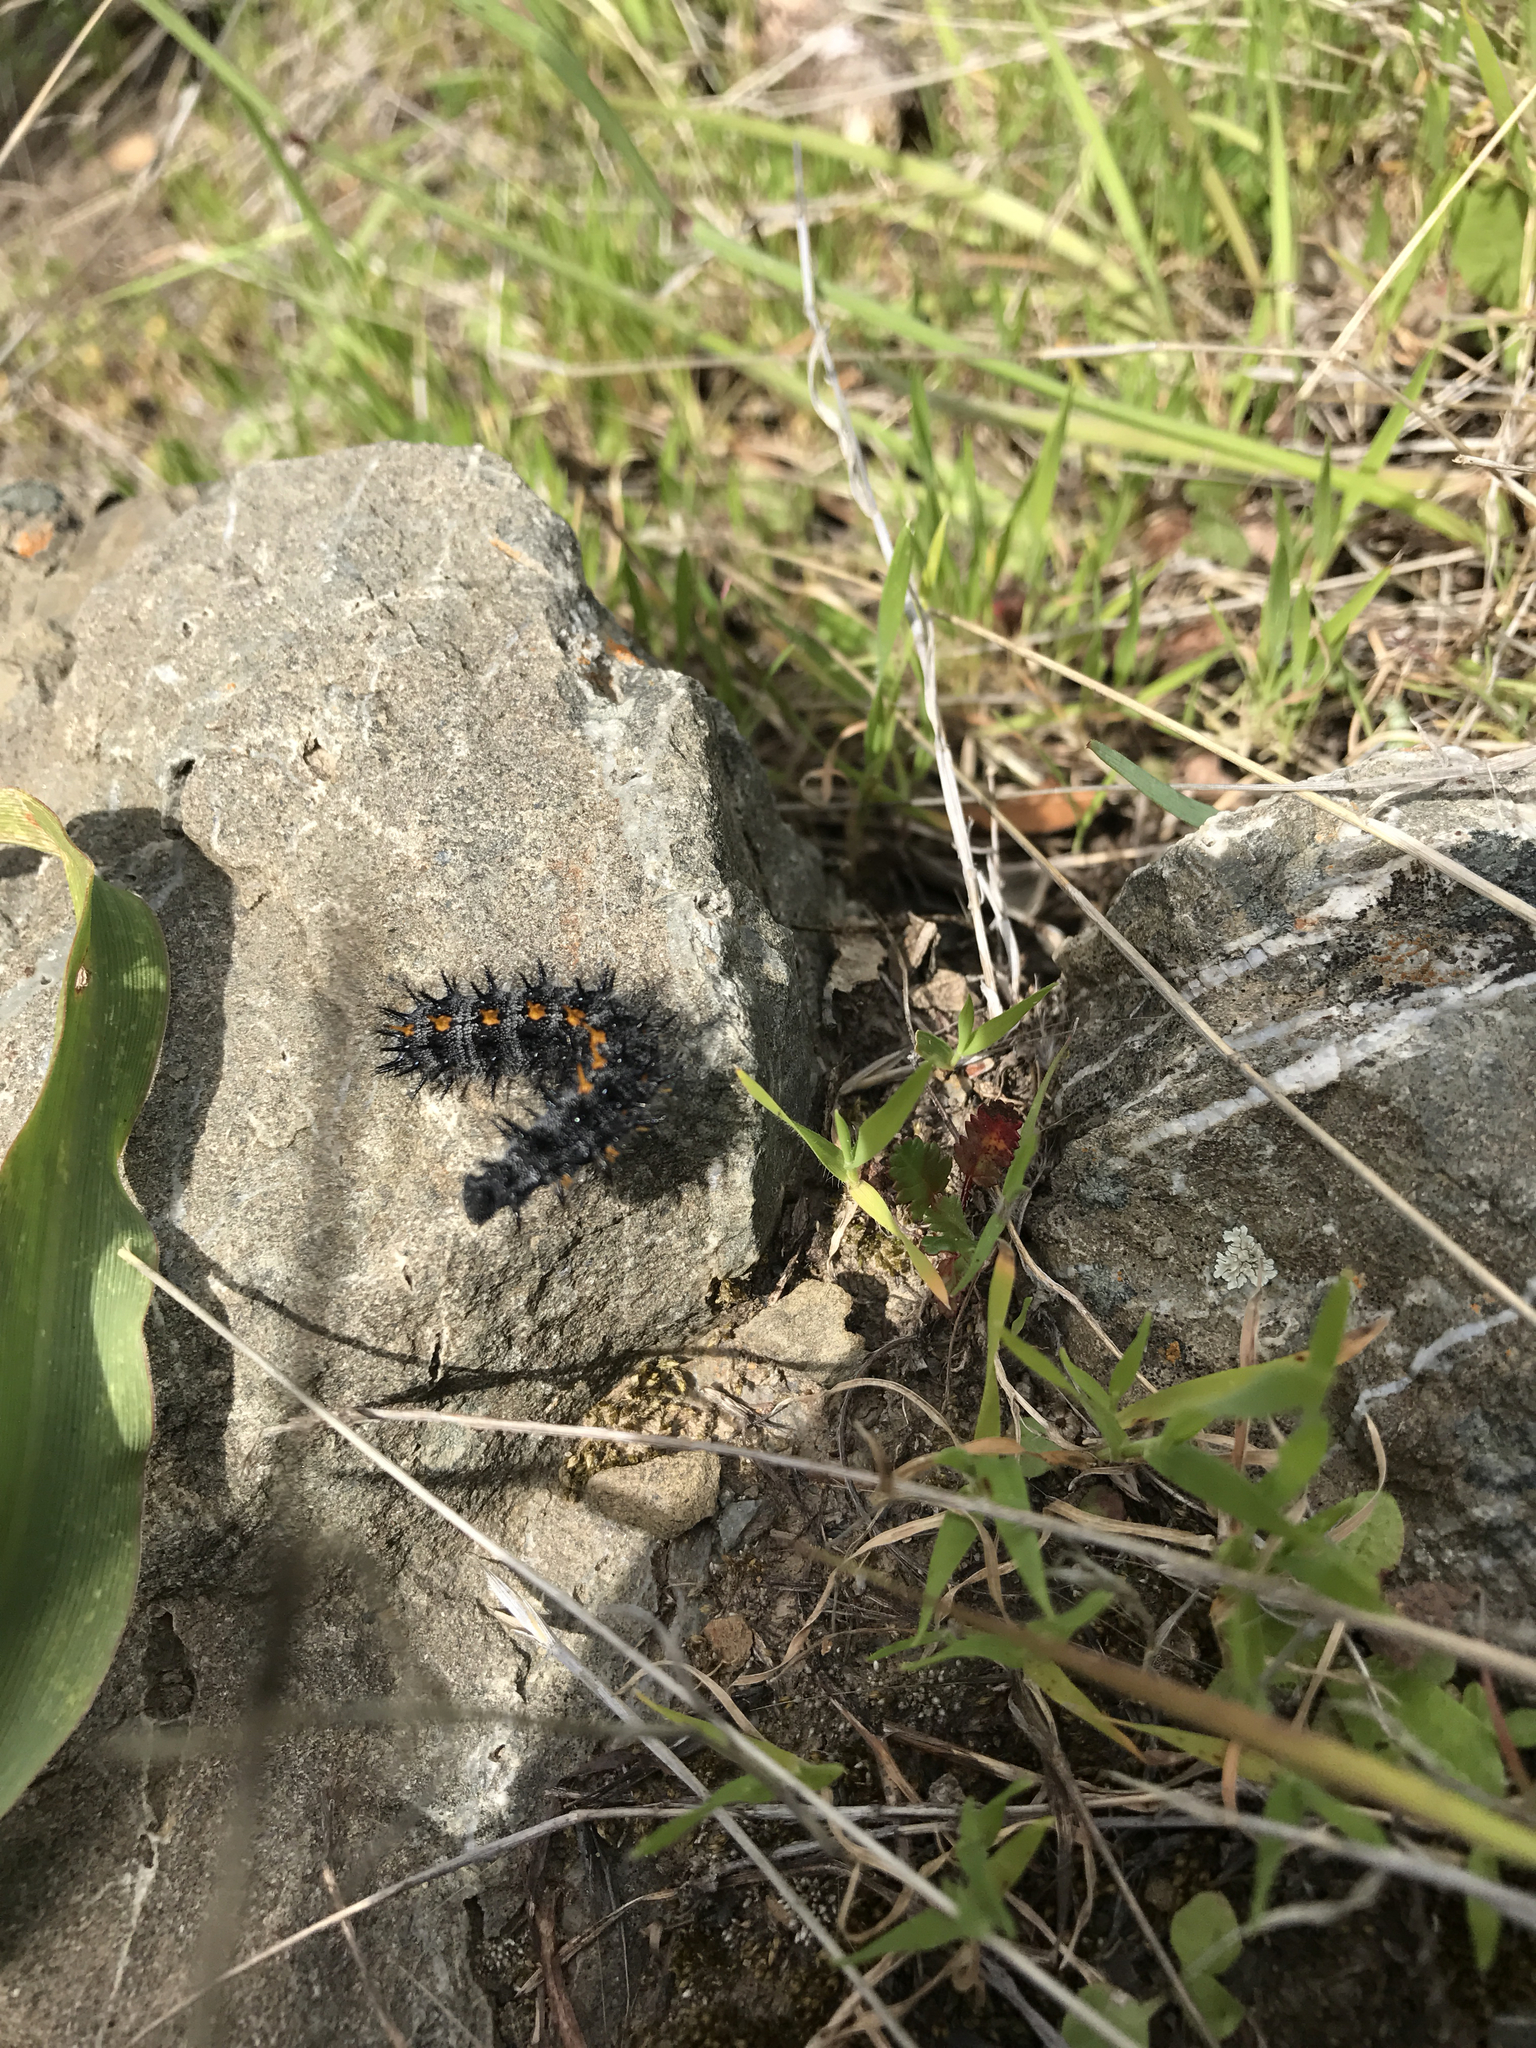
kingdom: Animalia
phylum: Arthropoda
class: Insecta
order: Lepidoptera
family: Nymphalidae
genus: Occidryas
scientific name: Occidryas chalcedona
